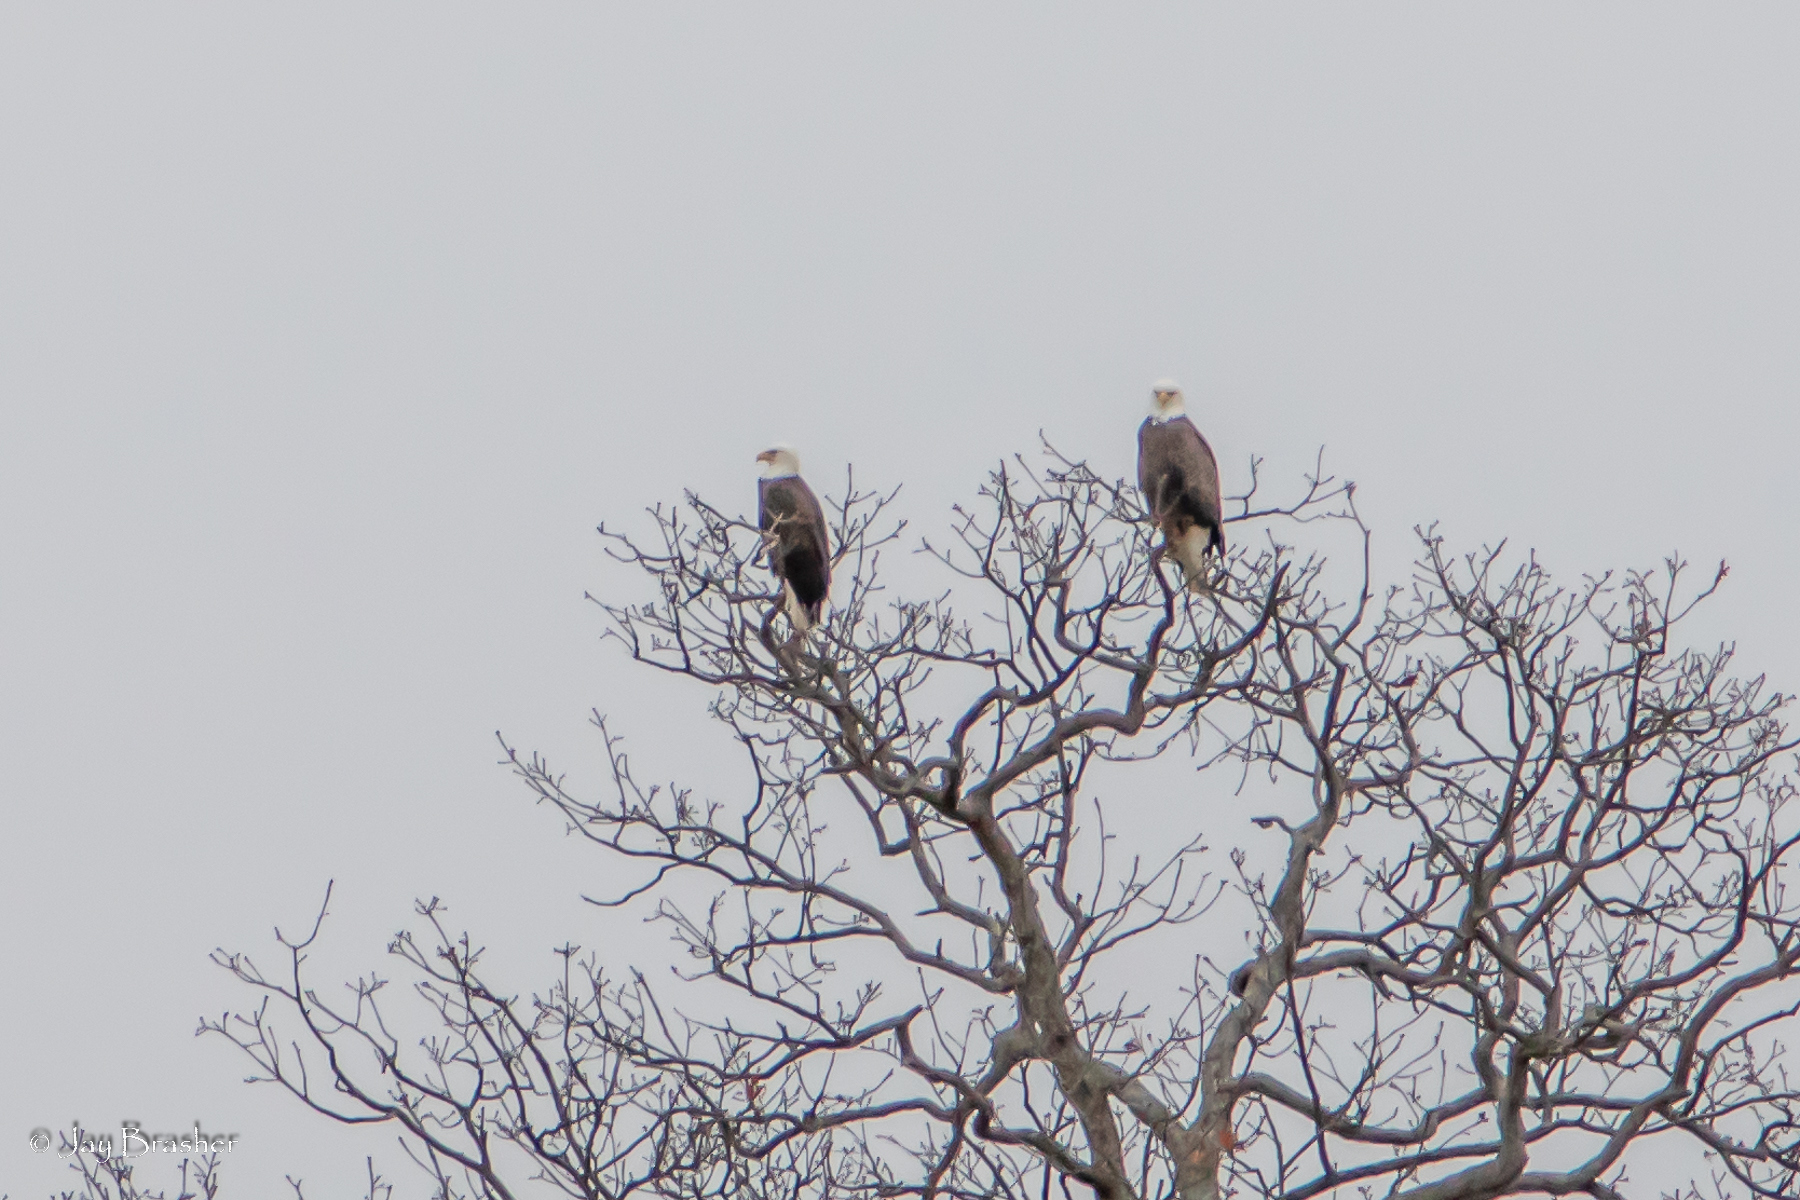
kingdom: Animalia
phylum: Chordata
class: Aves
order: Accipitriformes
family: Accipitridae
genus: Haliaeetus
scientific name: Haliaeetus leucocephalus
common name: Bald eagle
